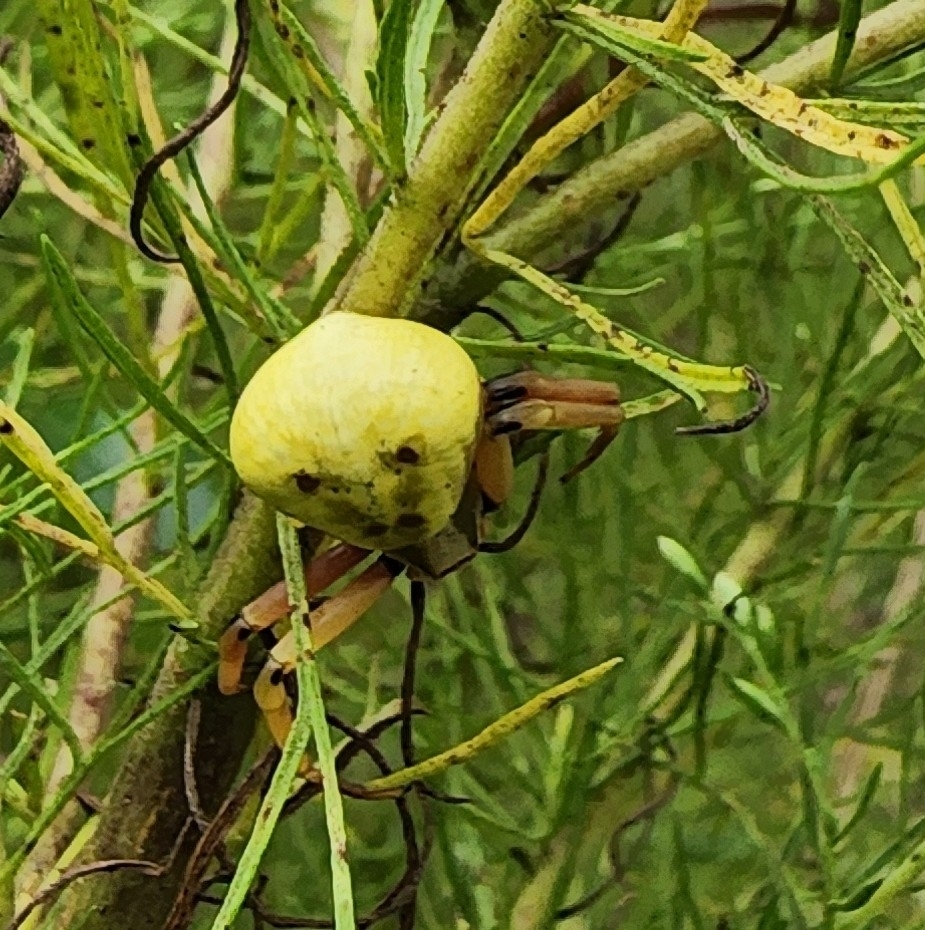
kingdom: Animalia
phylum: Arthropoda
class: Arachnida
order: Araneae
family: Thomisidae
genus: Misumenoides
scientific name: Misumenoides formosipes
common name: White-banded crab spider
